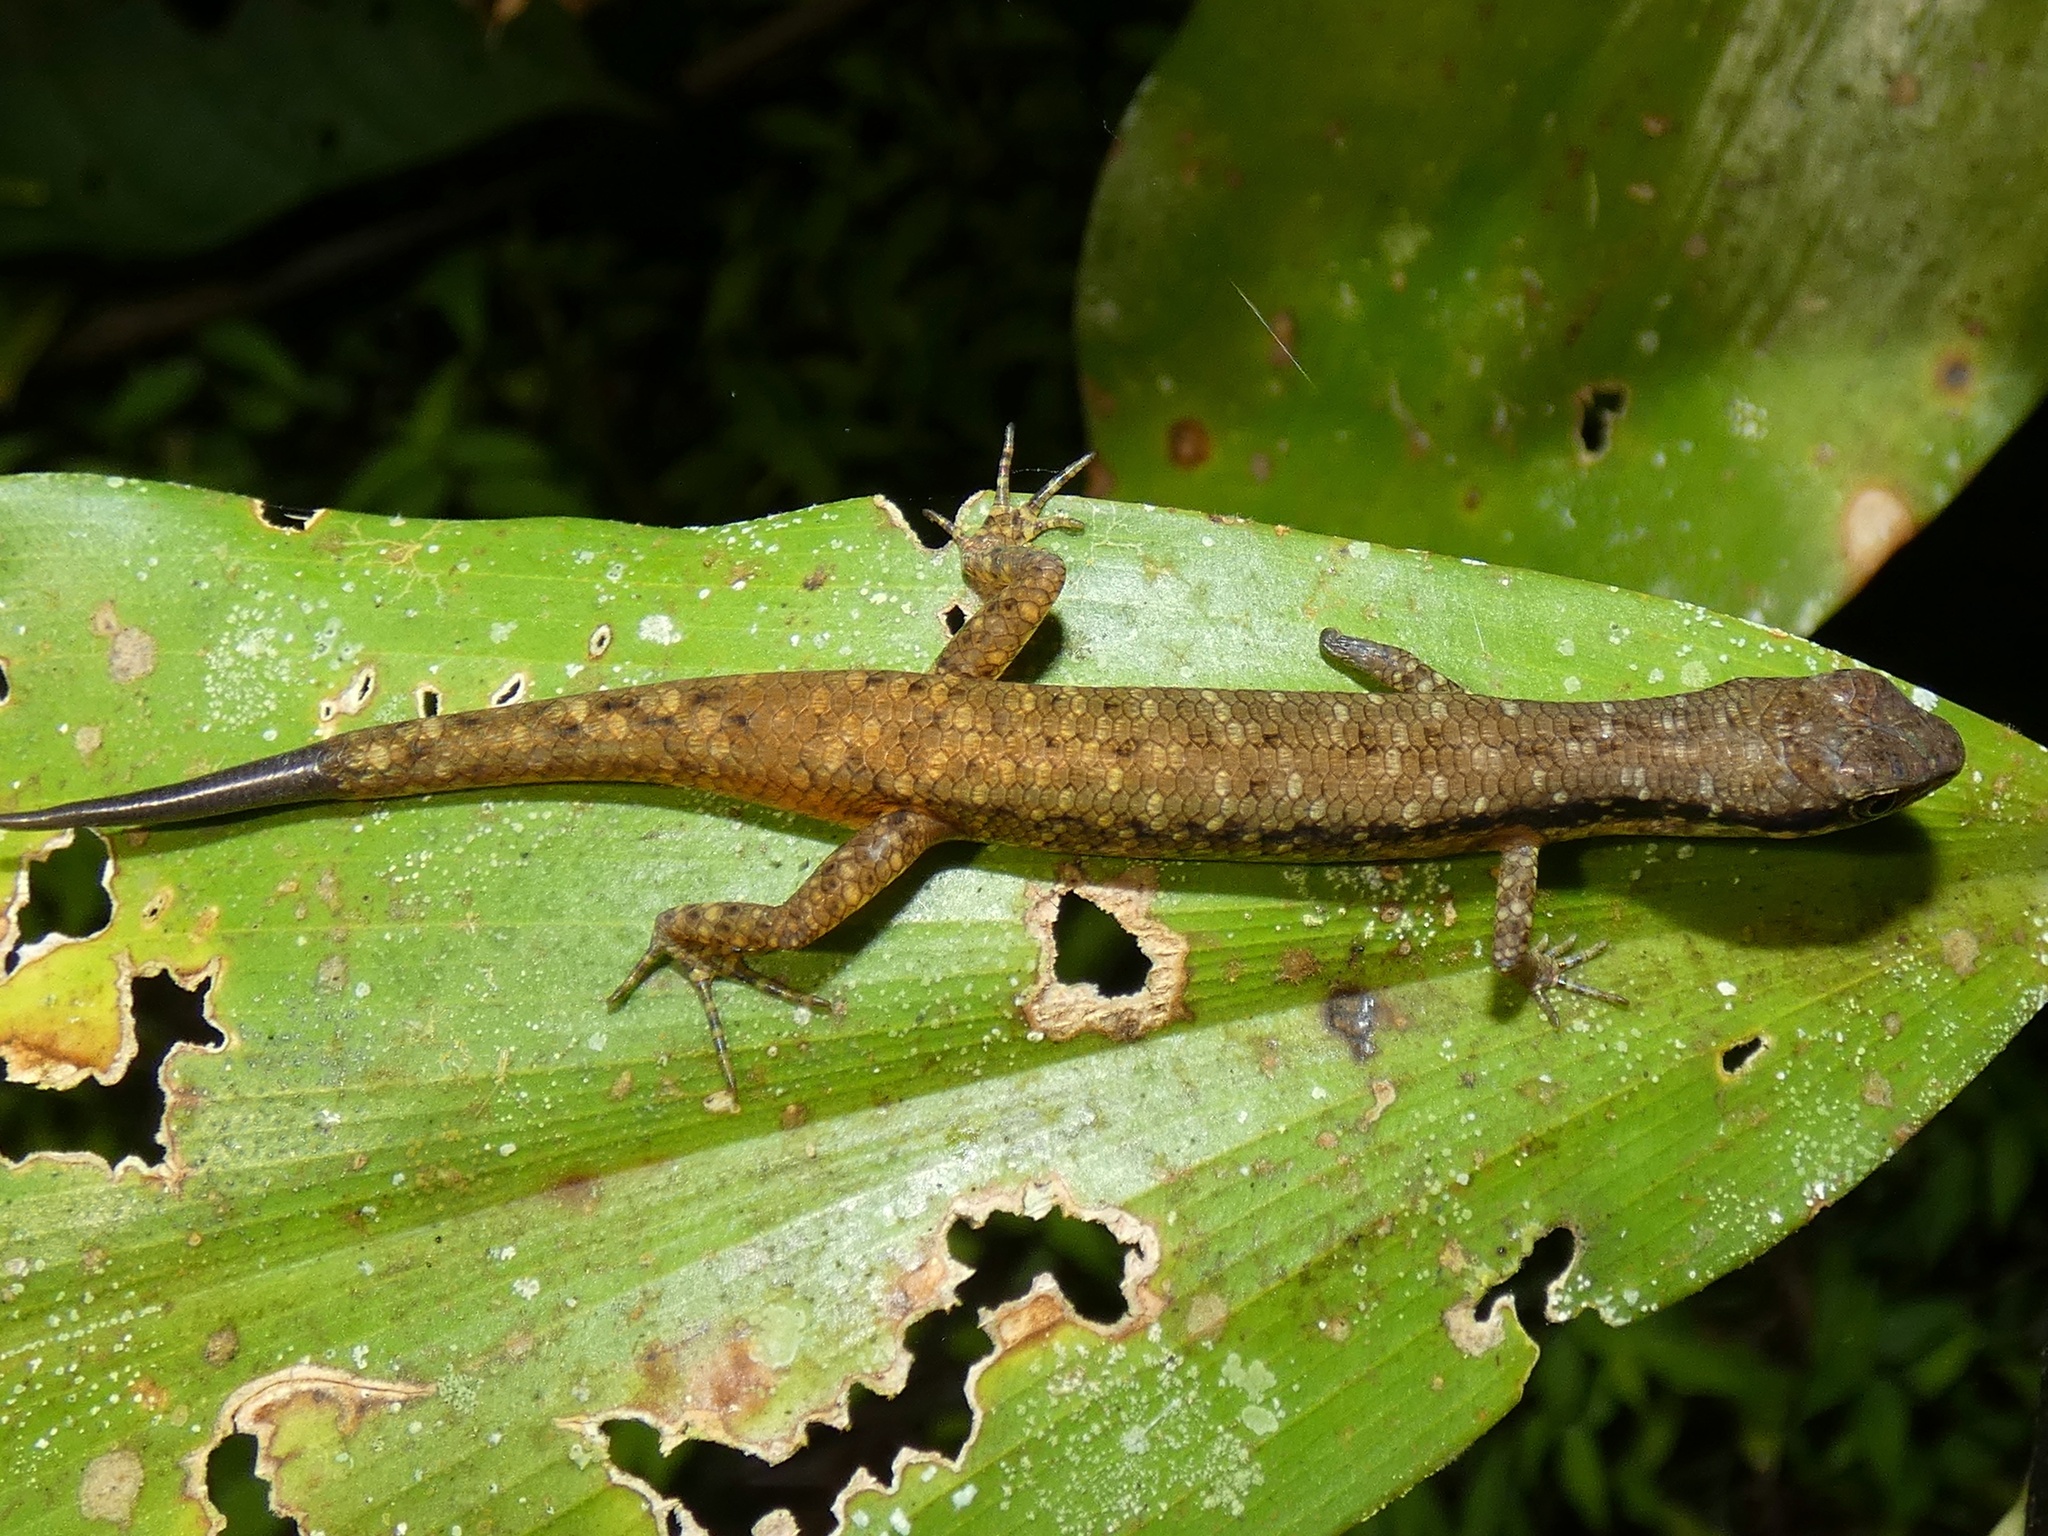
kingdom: Animalia
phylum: Chordata
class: Squamata
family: Scincidae
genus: Saproscincus
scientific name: Saproscincus basiliscus
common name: Pale-lipped shadeskink
